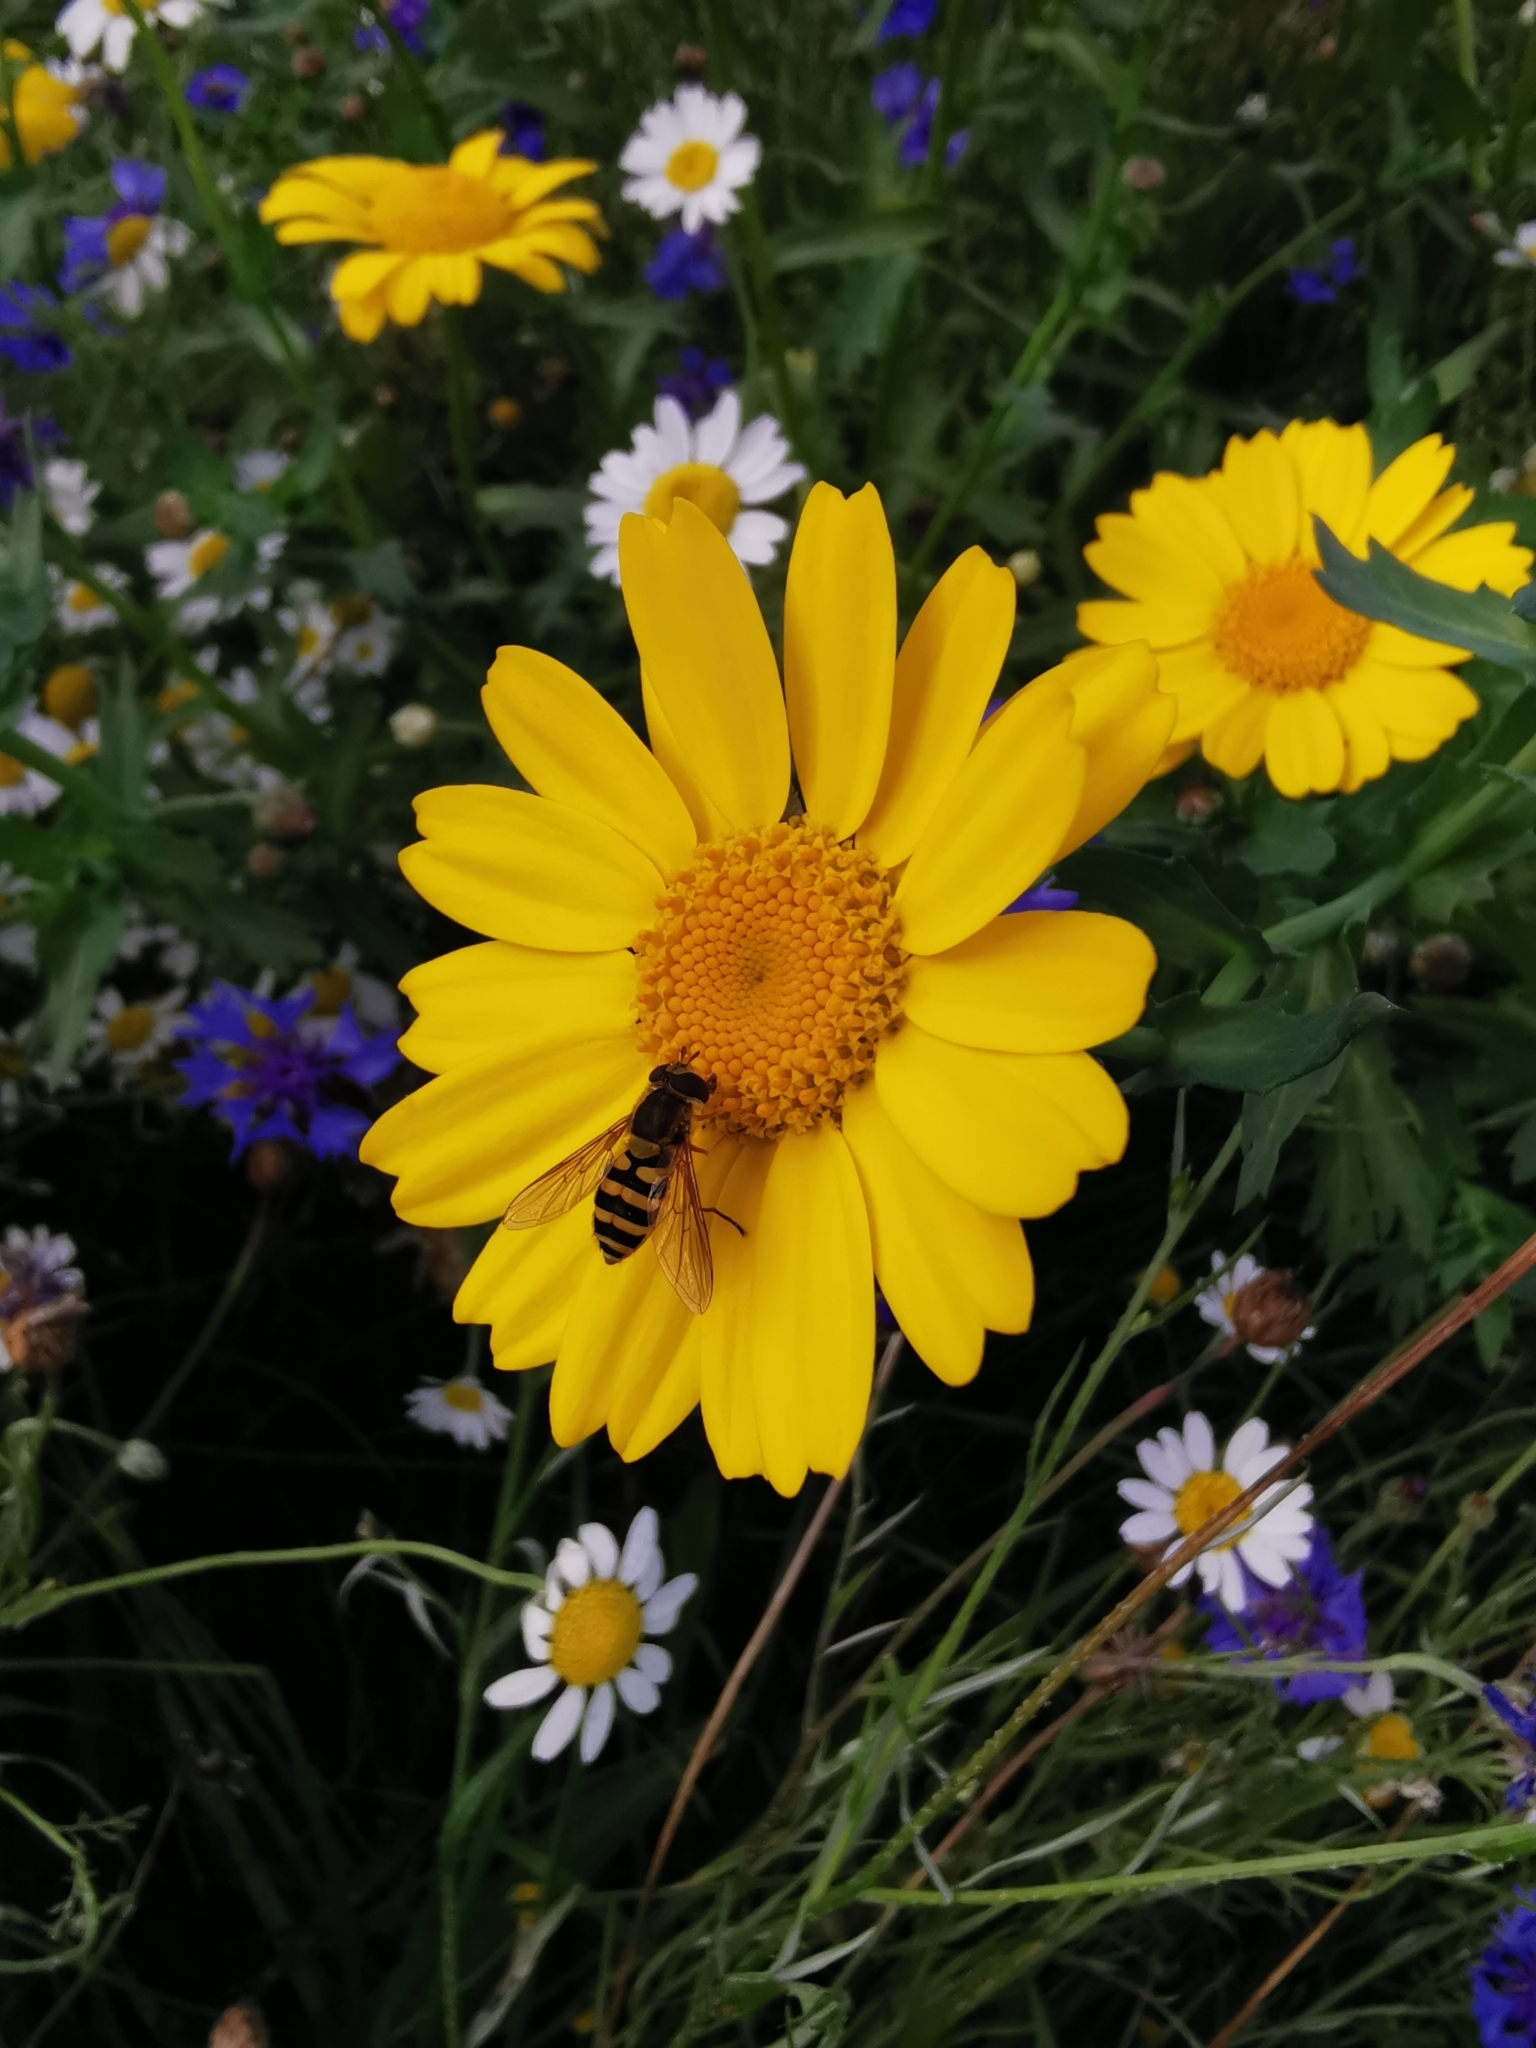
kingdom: Animalia
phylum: Arthropoda
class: Insecta
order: Diptera
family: Syrphidae
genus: Syrphus
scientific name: Syrphus ribesii
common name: Common flower fly
